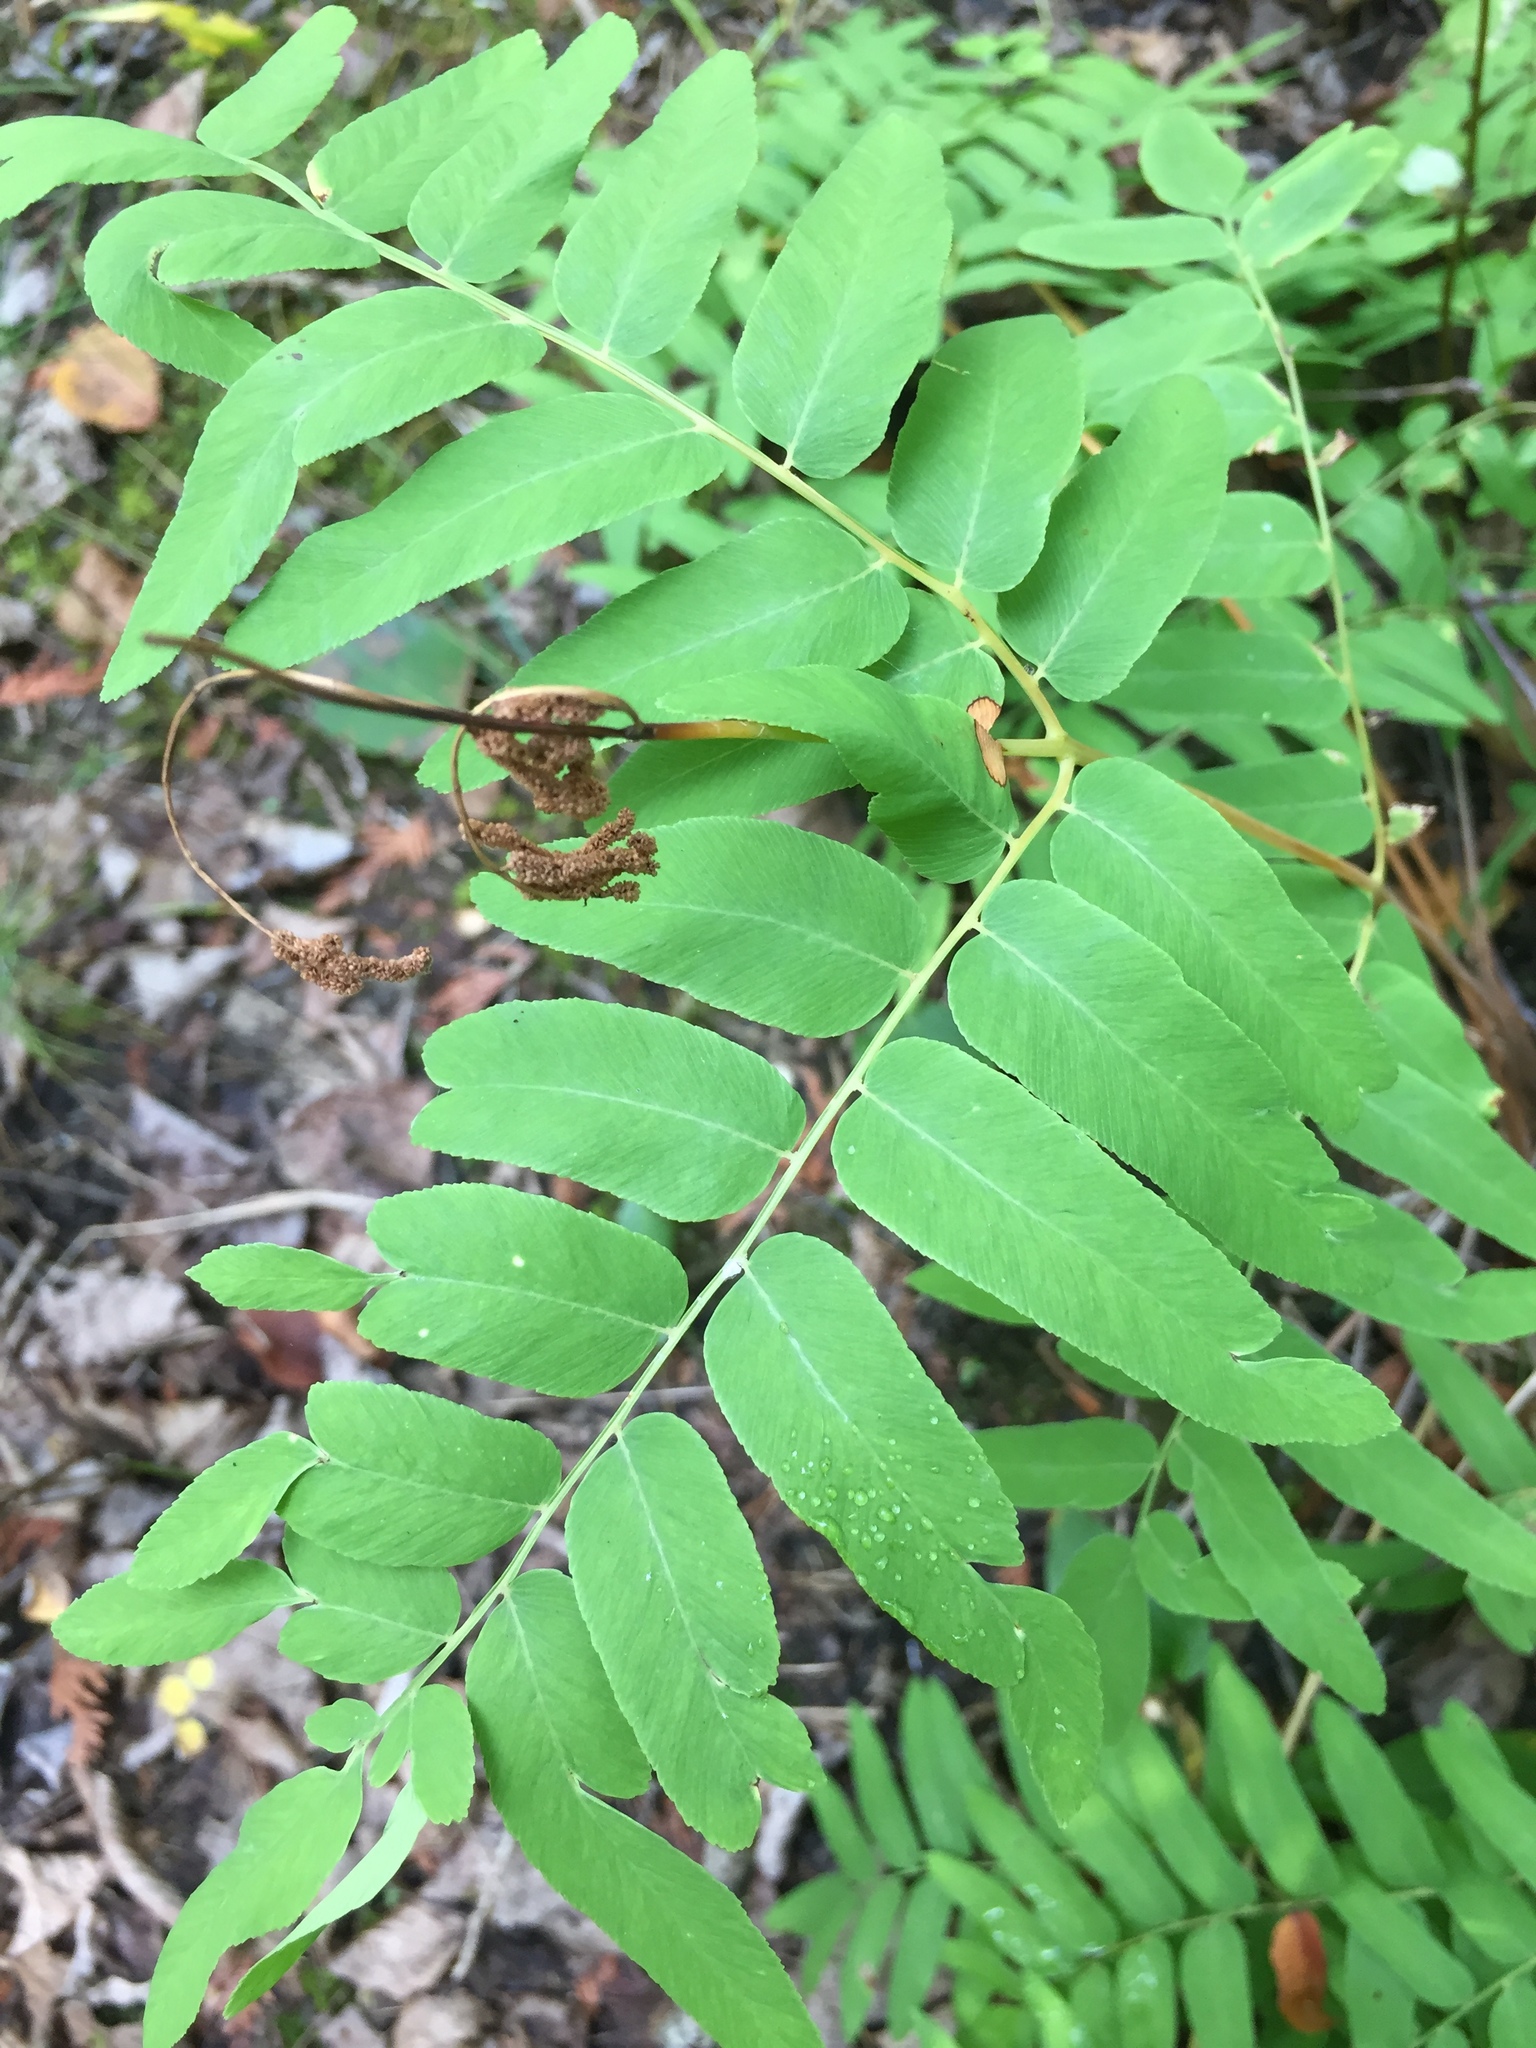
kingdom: Plantae
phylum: Tracheophyta
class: Polypodiopsida
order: Osmundales
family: Osmundaceae
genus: Osmunda
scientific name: Osmunda spectabilis
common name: American royal fern
